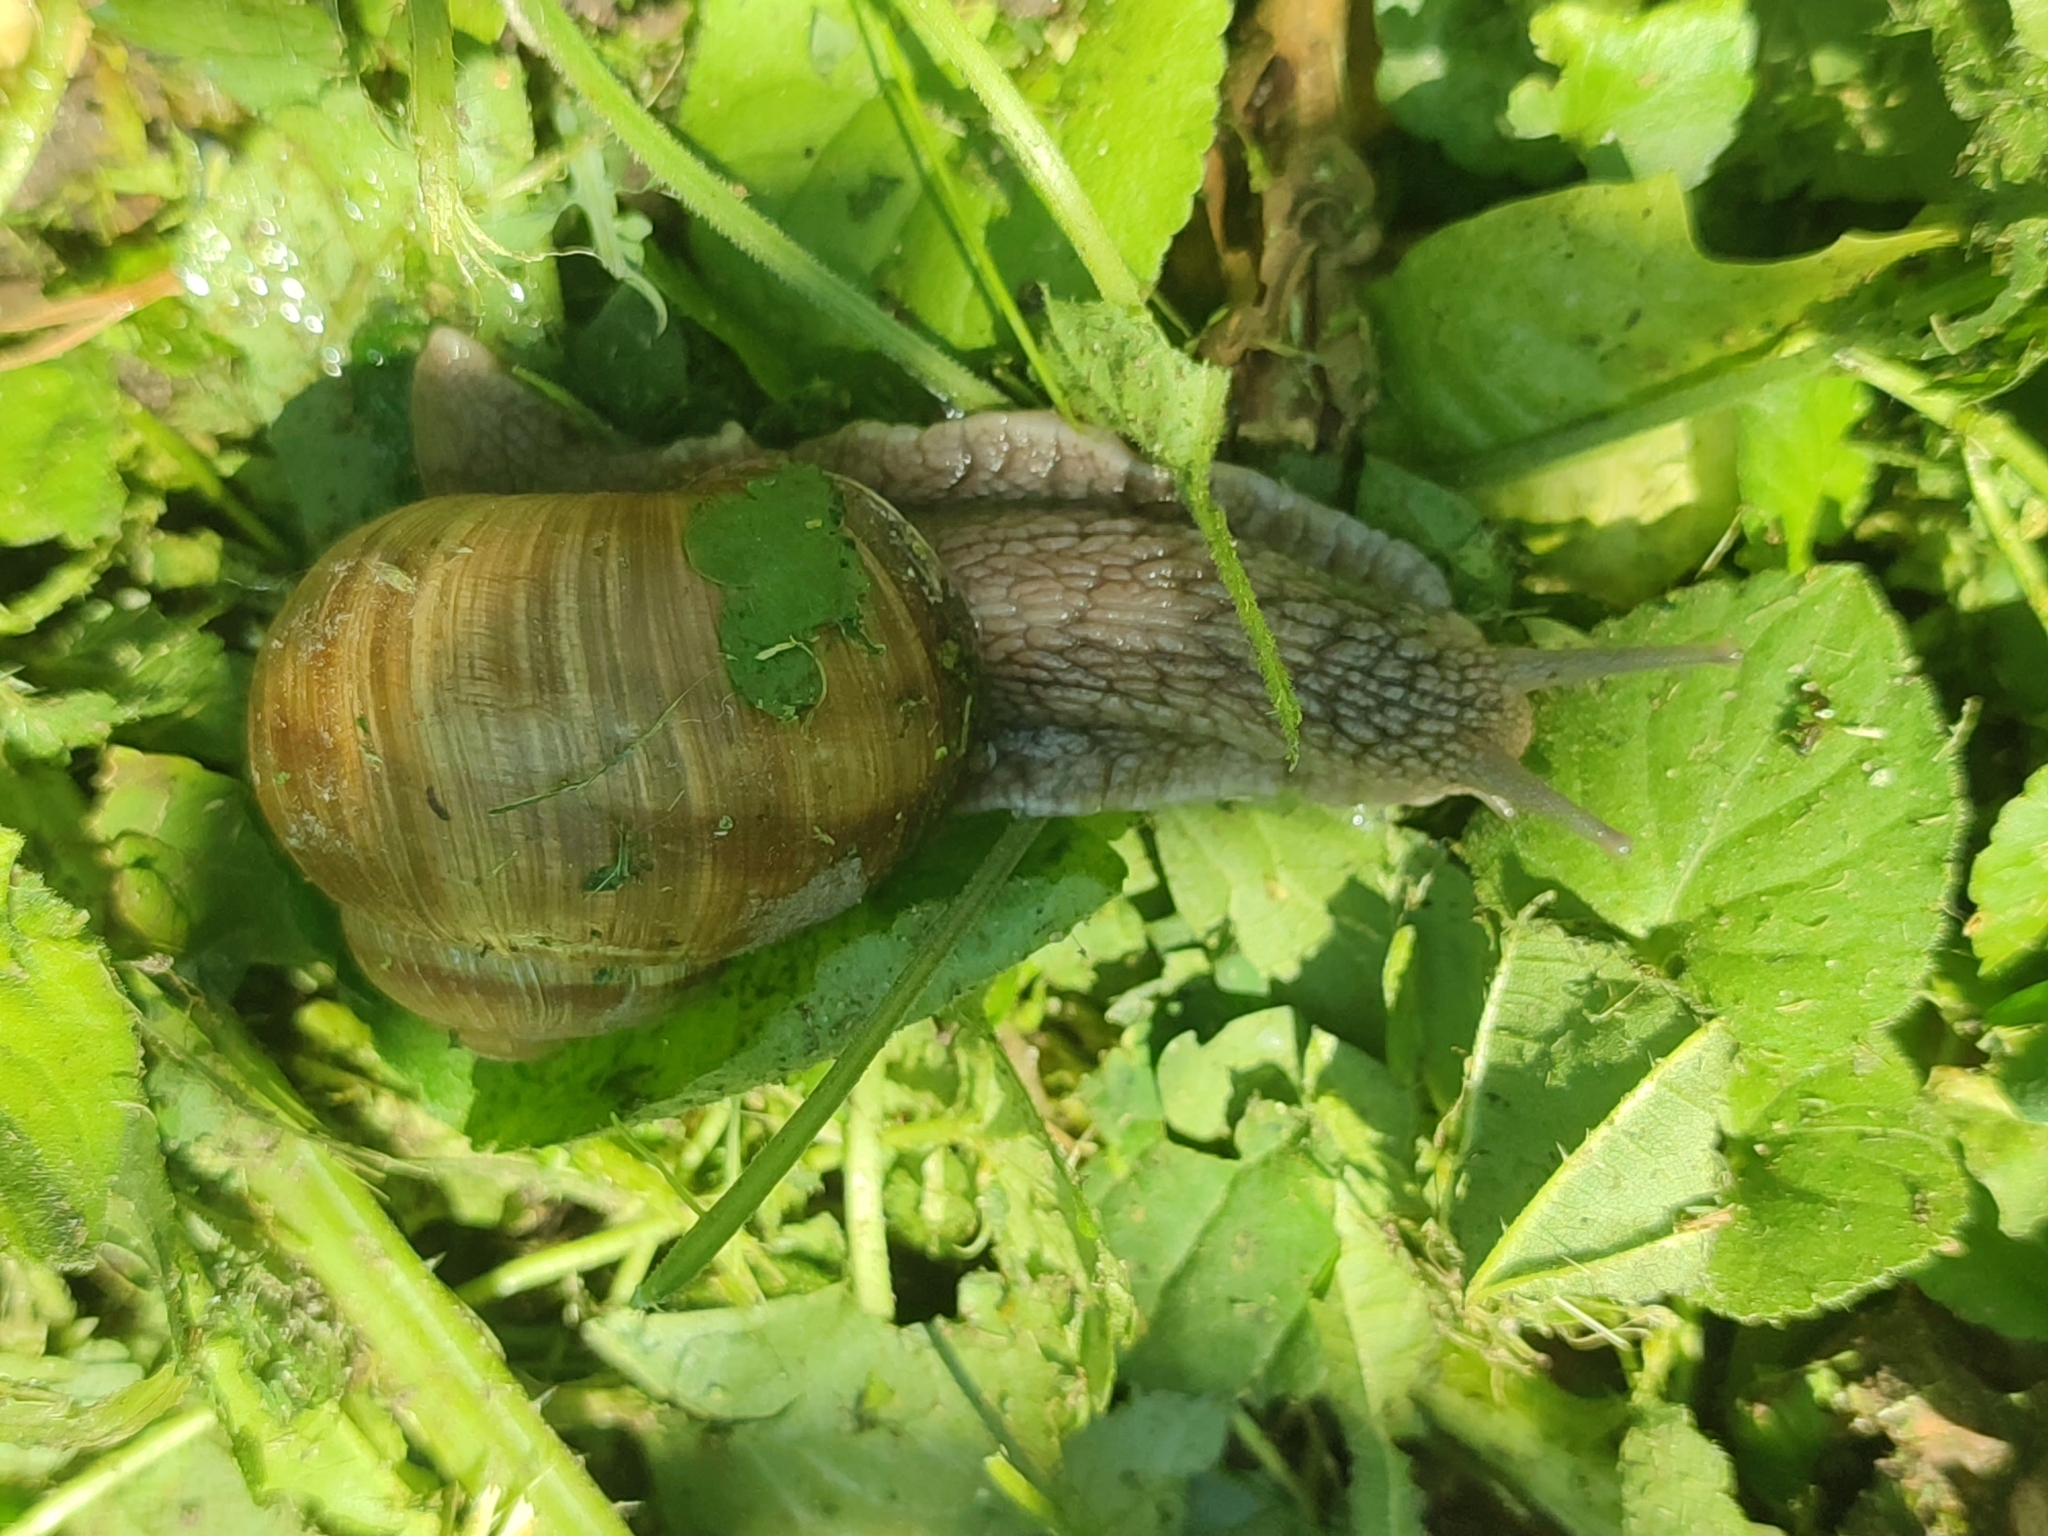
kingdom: Animalia
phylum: Mollusca
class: Gastropoda
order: Stylommatophora
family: Helicidae
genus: Helix
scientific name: Helix pomatia
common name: Roman snail
